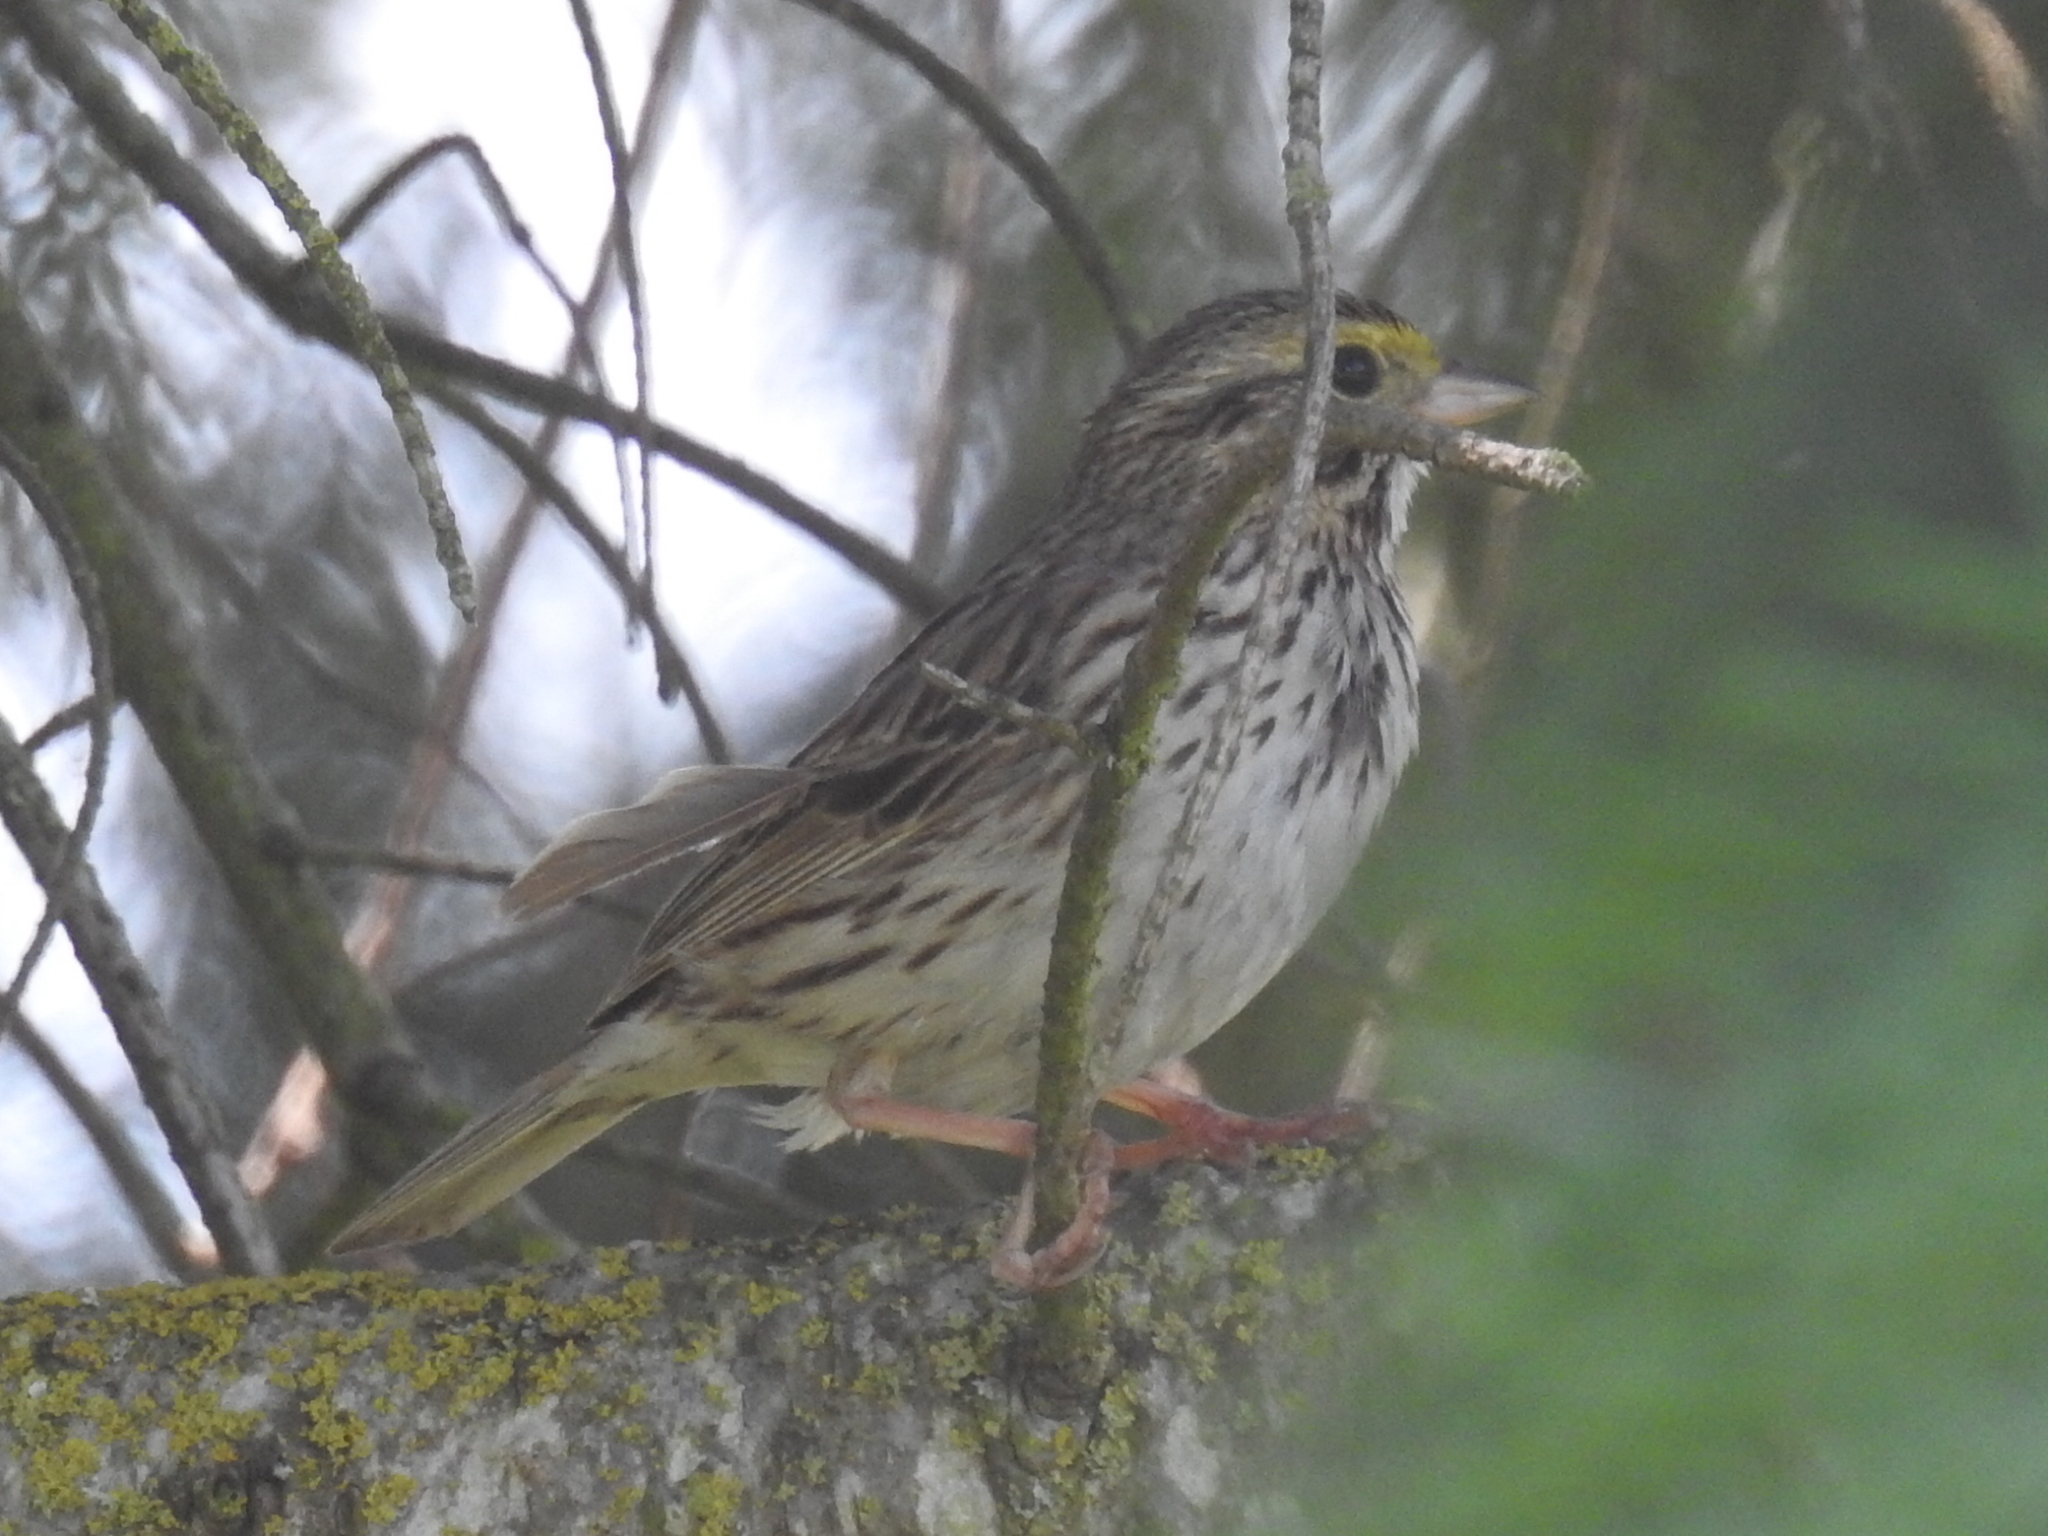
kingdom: Animalia
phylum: Chordata
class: Aves
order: Passeriformes
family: Passerellidae
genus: Passerculus
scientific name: Passerculus sandwichensis
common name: Savannah sparrow
